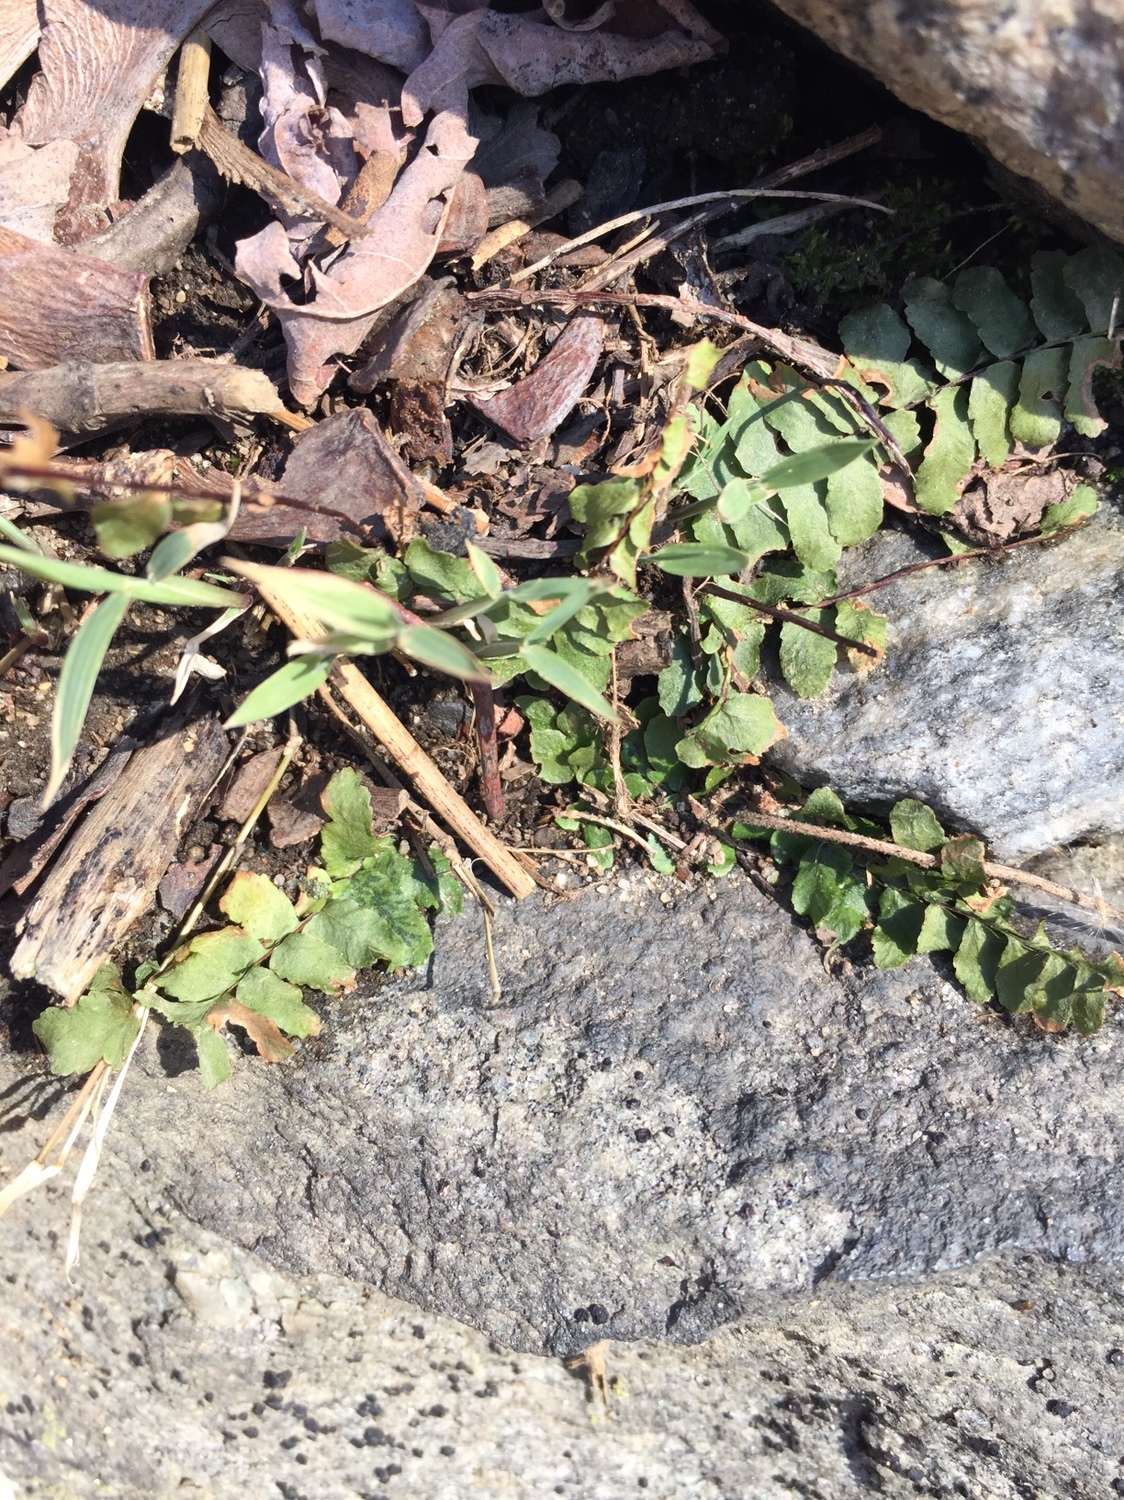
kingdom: Plantae
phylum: Tracheophyta
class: Polypodiopsida
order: Polypodiales
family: Aspleniaceae
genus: Asplenium
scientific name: Asplenium platyneuron
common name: Ebony spleenwort
